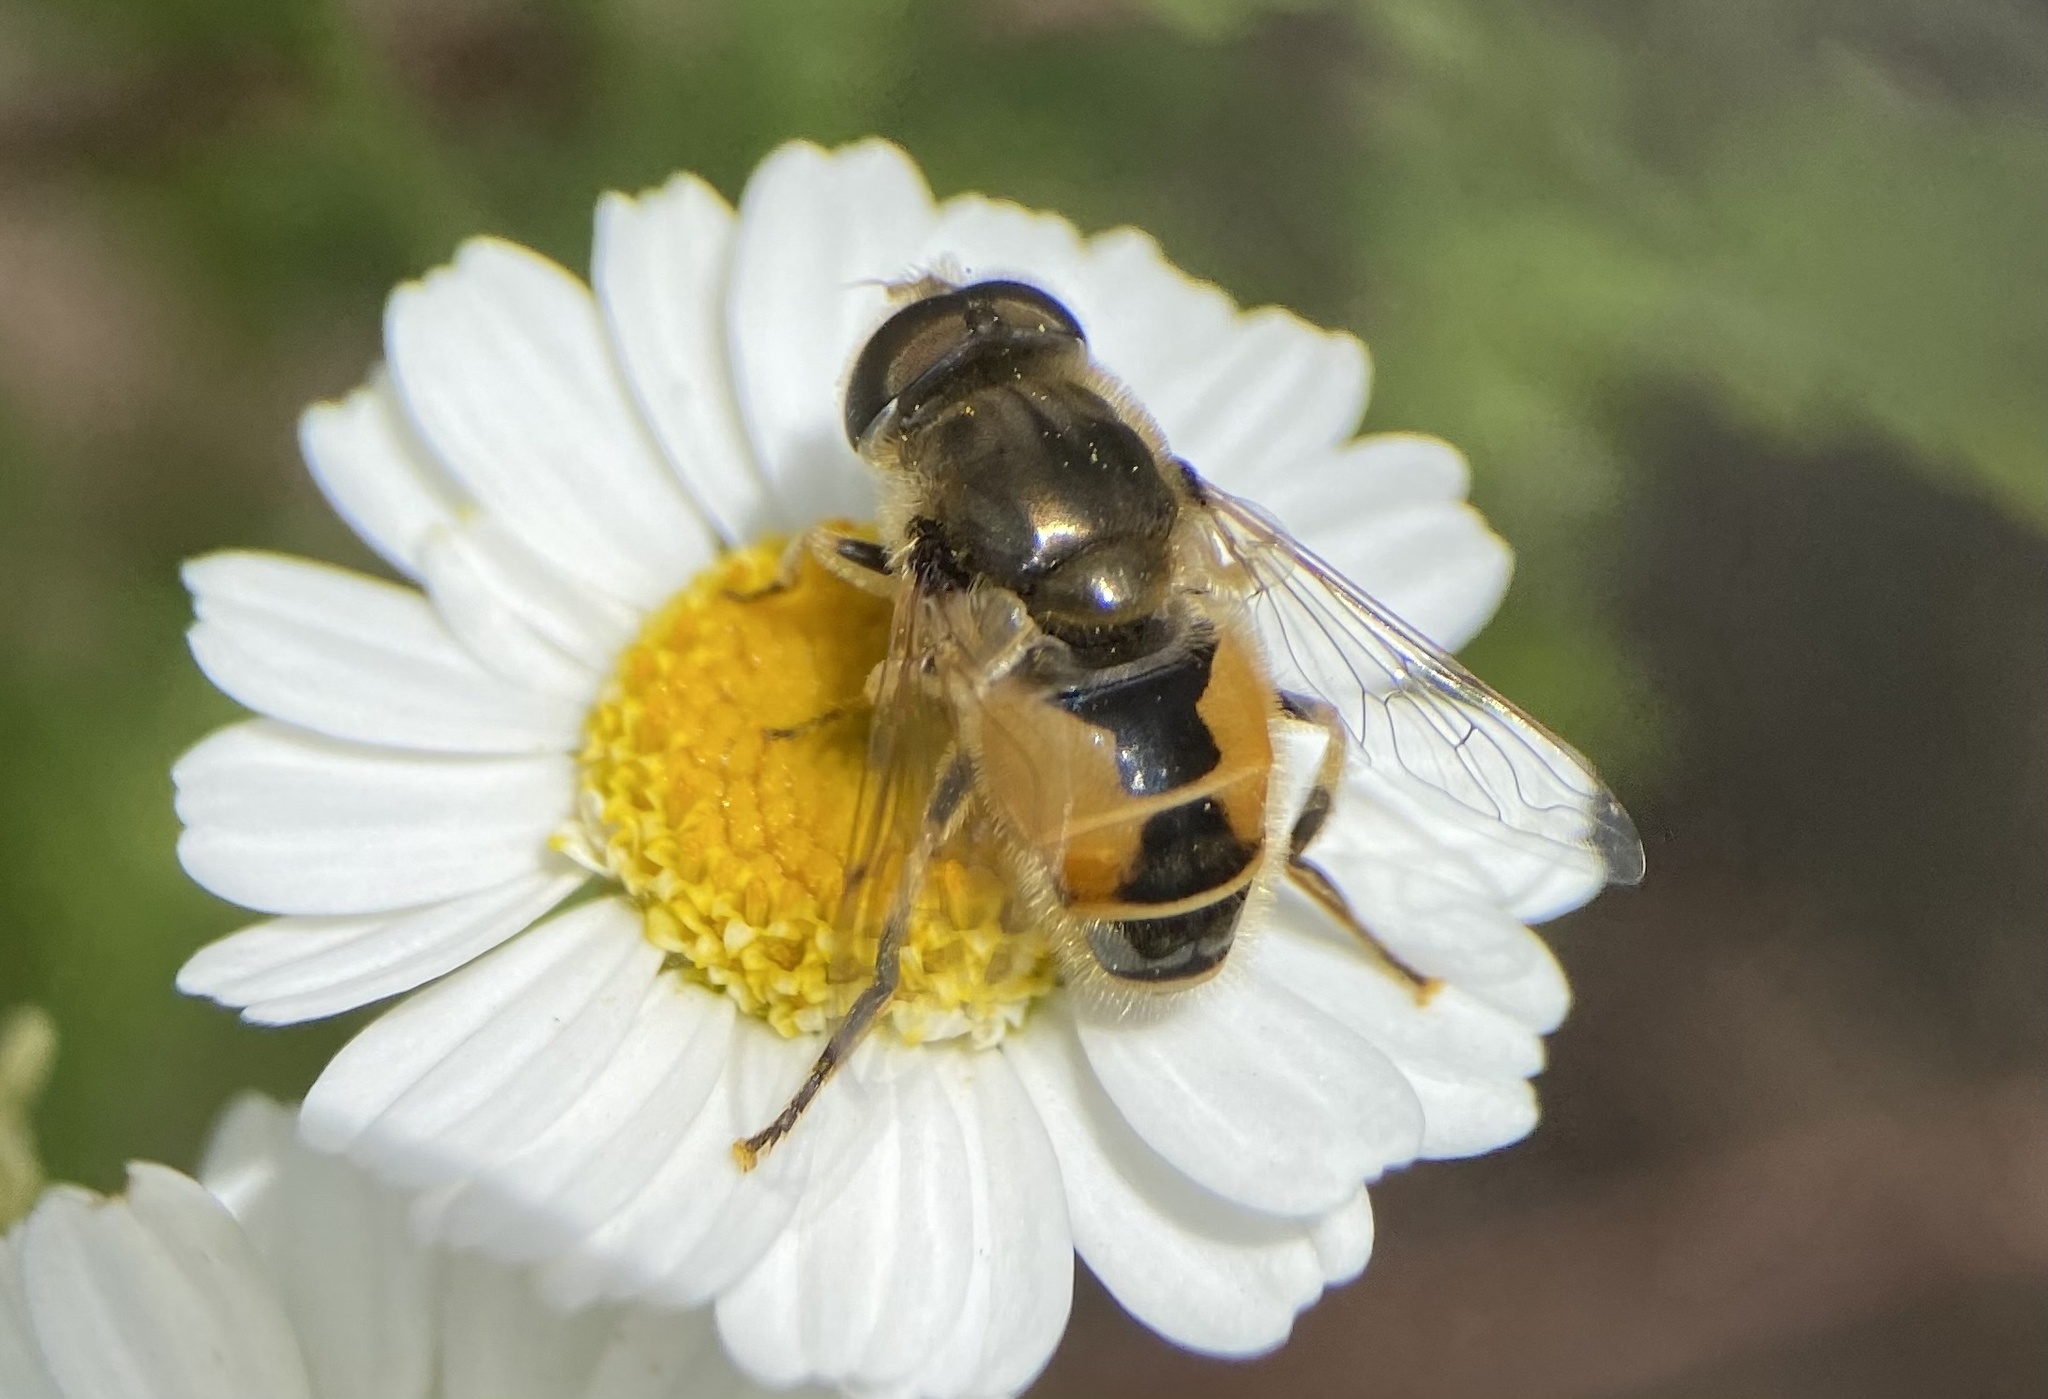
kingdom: Animalia
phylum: Arthropoda
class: Insecta
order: Diptera
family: Syrphidae
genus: Eristalis
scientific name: Eristalis arbustorum
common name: Hover fly
